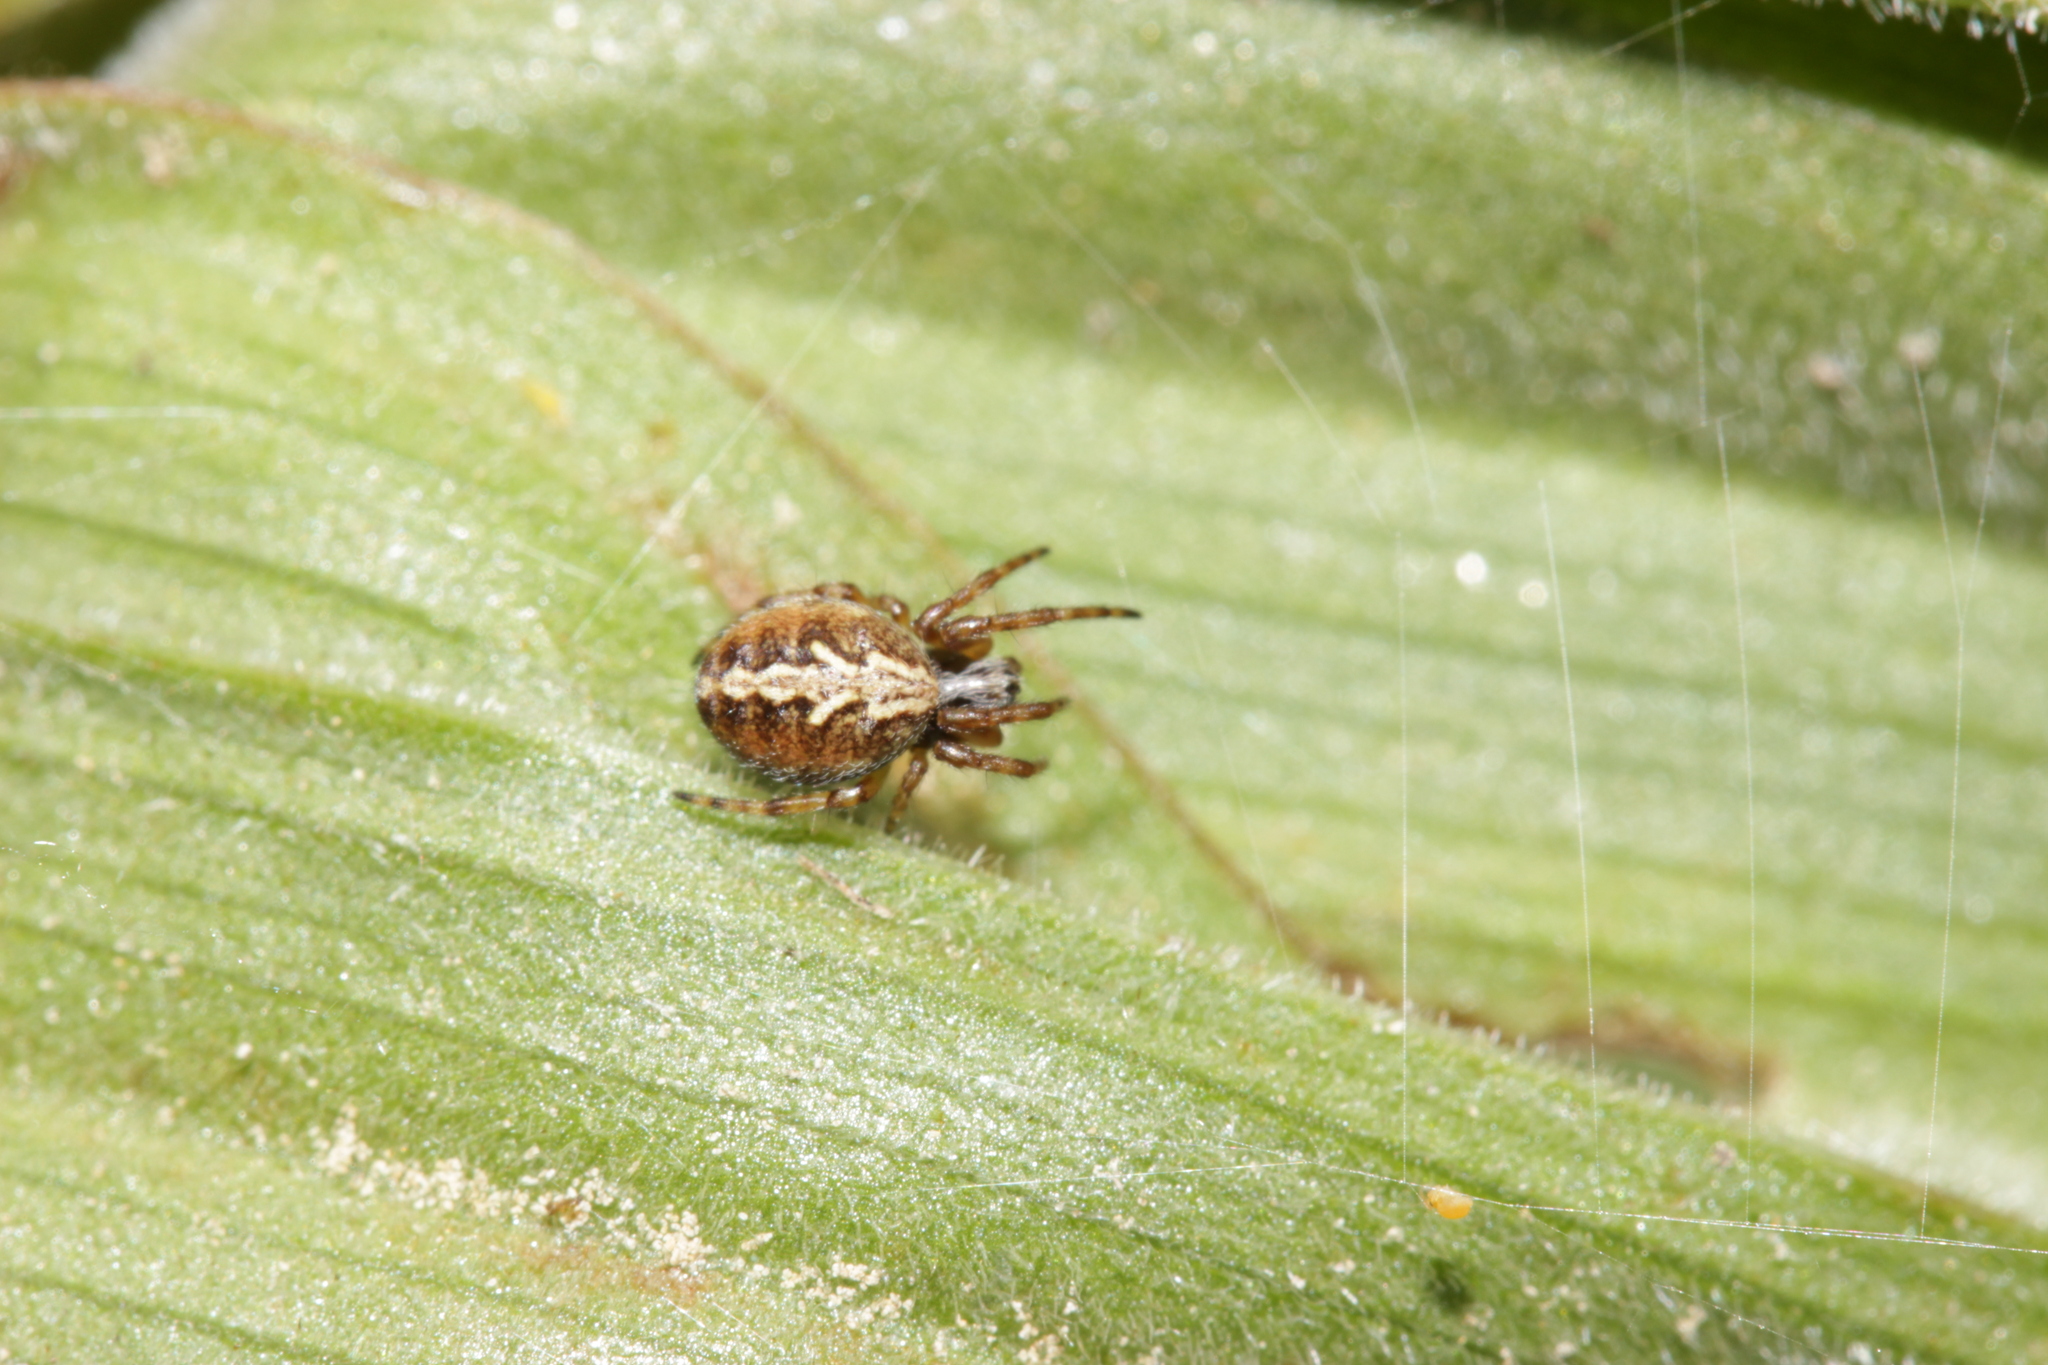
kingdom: Animalia
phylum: Arthropoda
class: Arachnida
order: Araneae
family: Araneidae
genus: Aculepeira
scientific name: Aculepeira ceropegia
